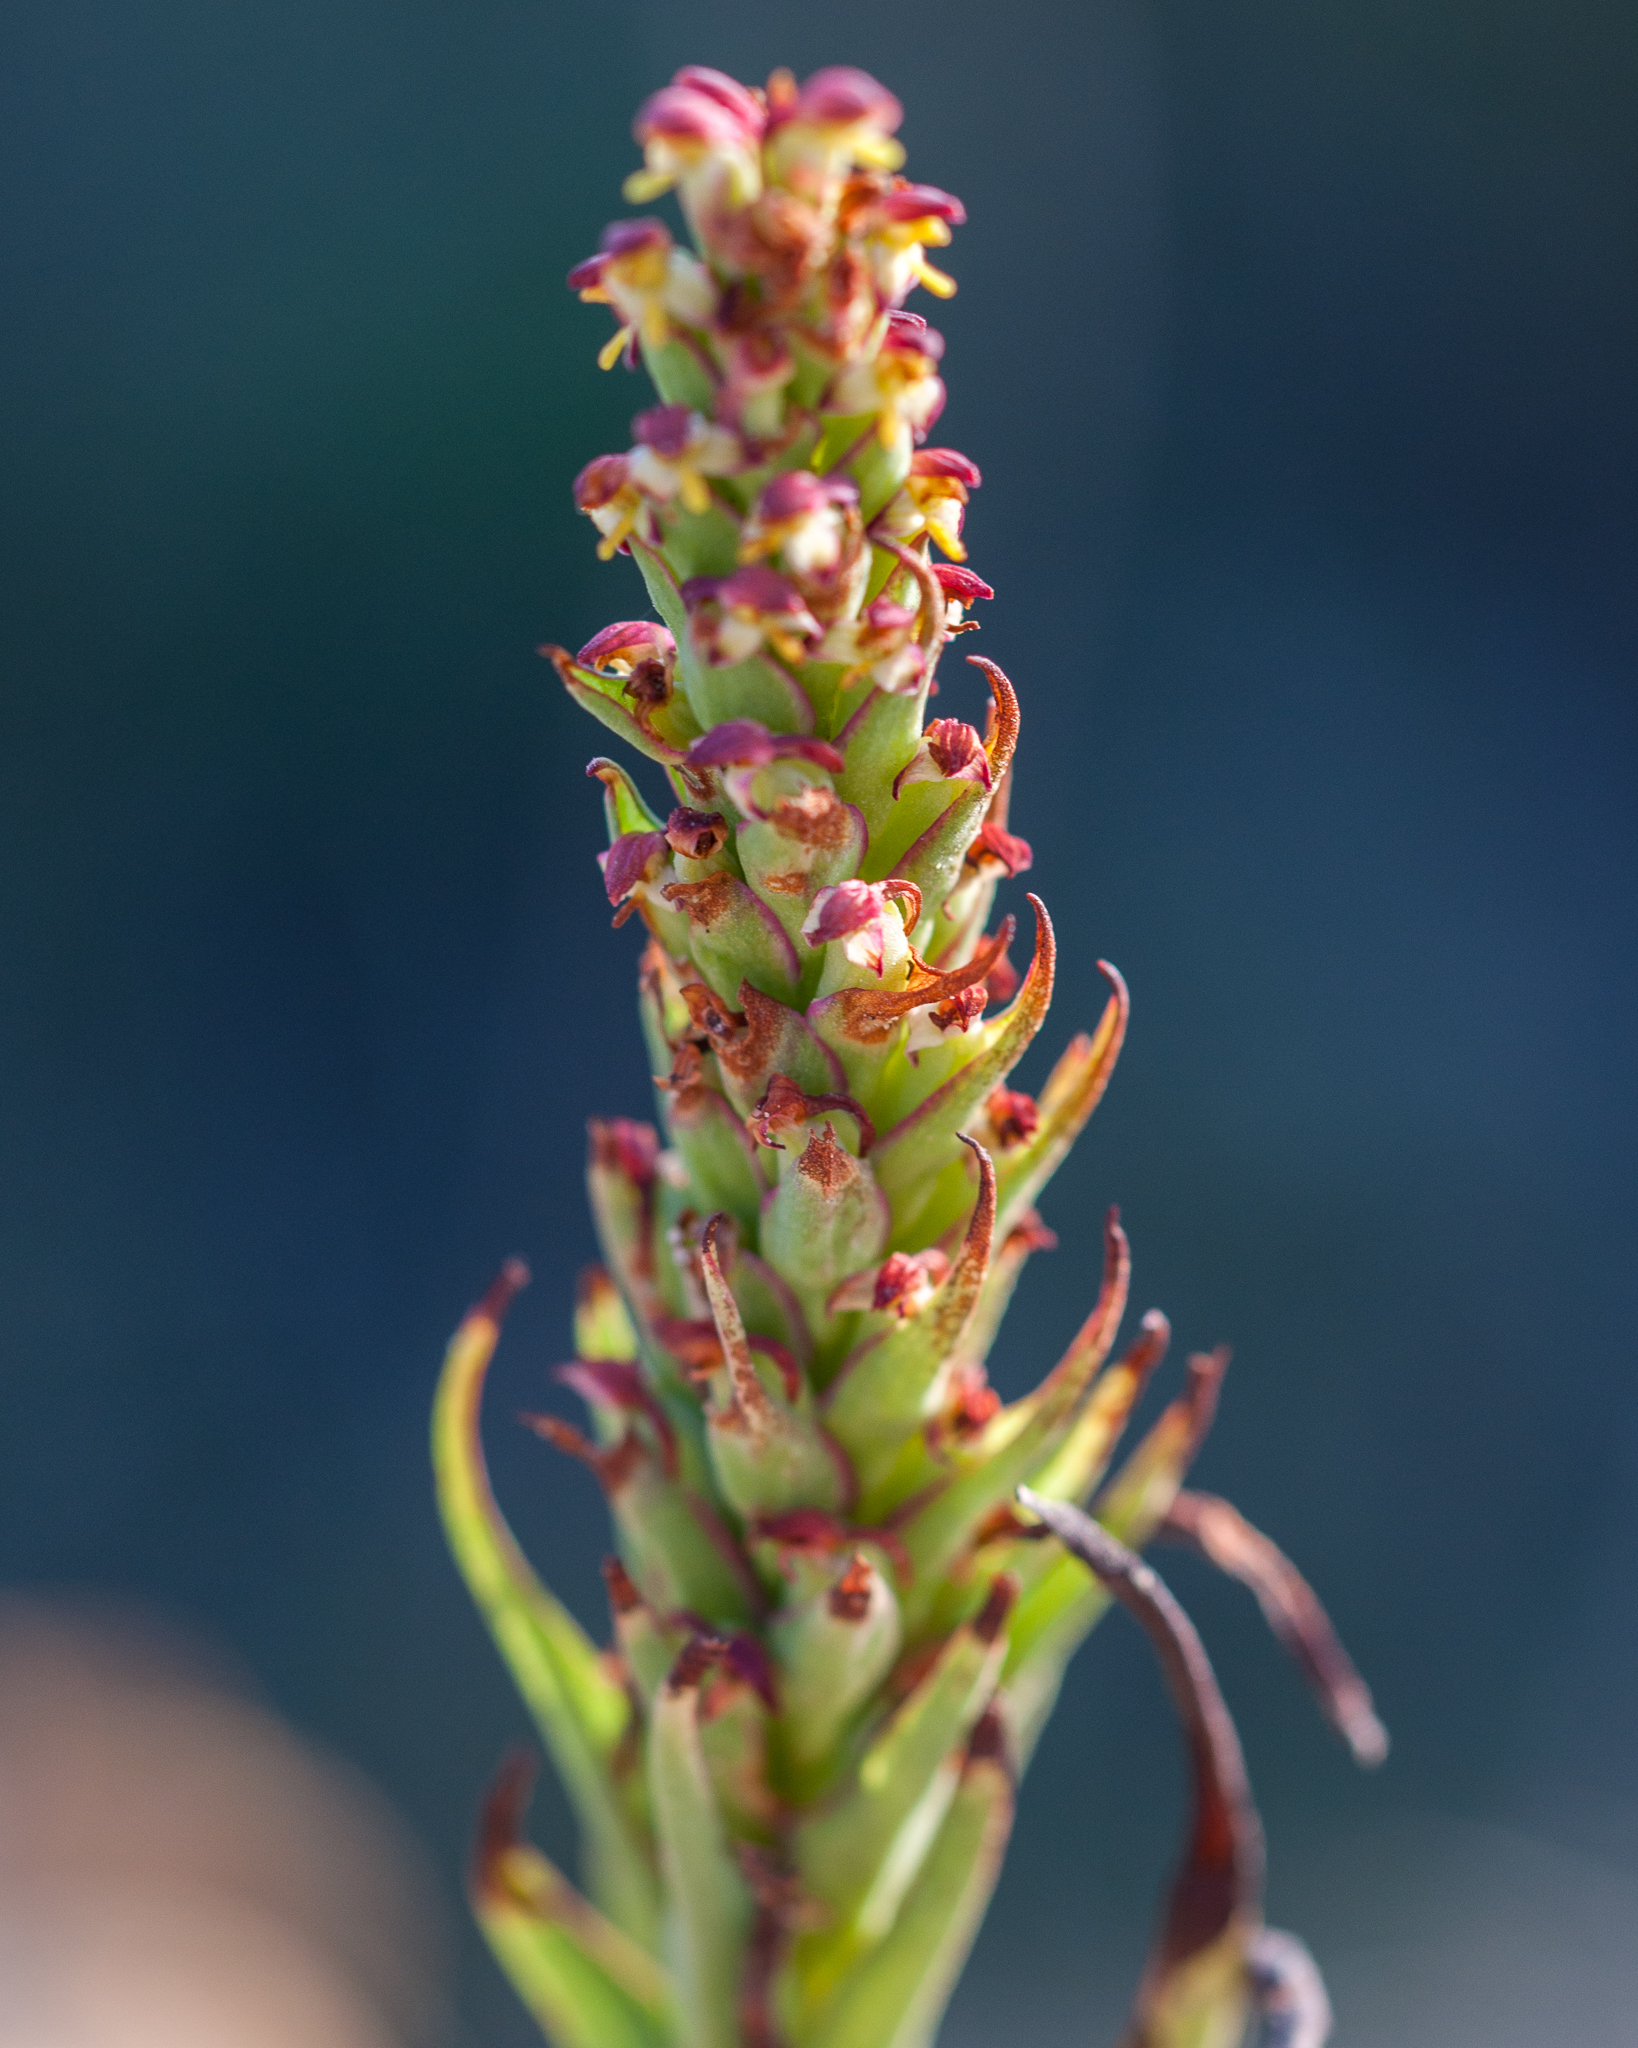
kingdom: Plantae
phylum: Tracheophyta
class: Liliopsida
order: Asparagales
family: Orchidaceae
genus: Disa
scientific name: Disa bracteata
